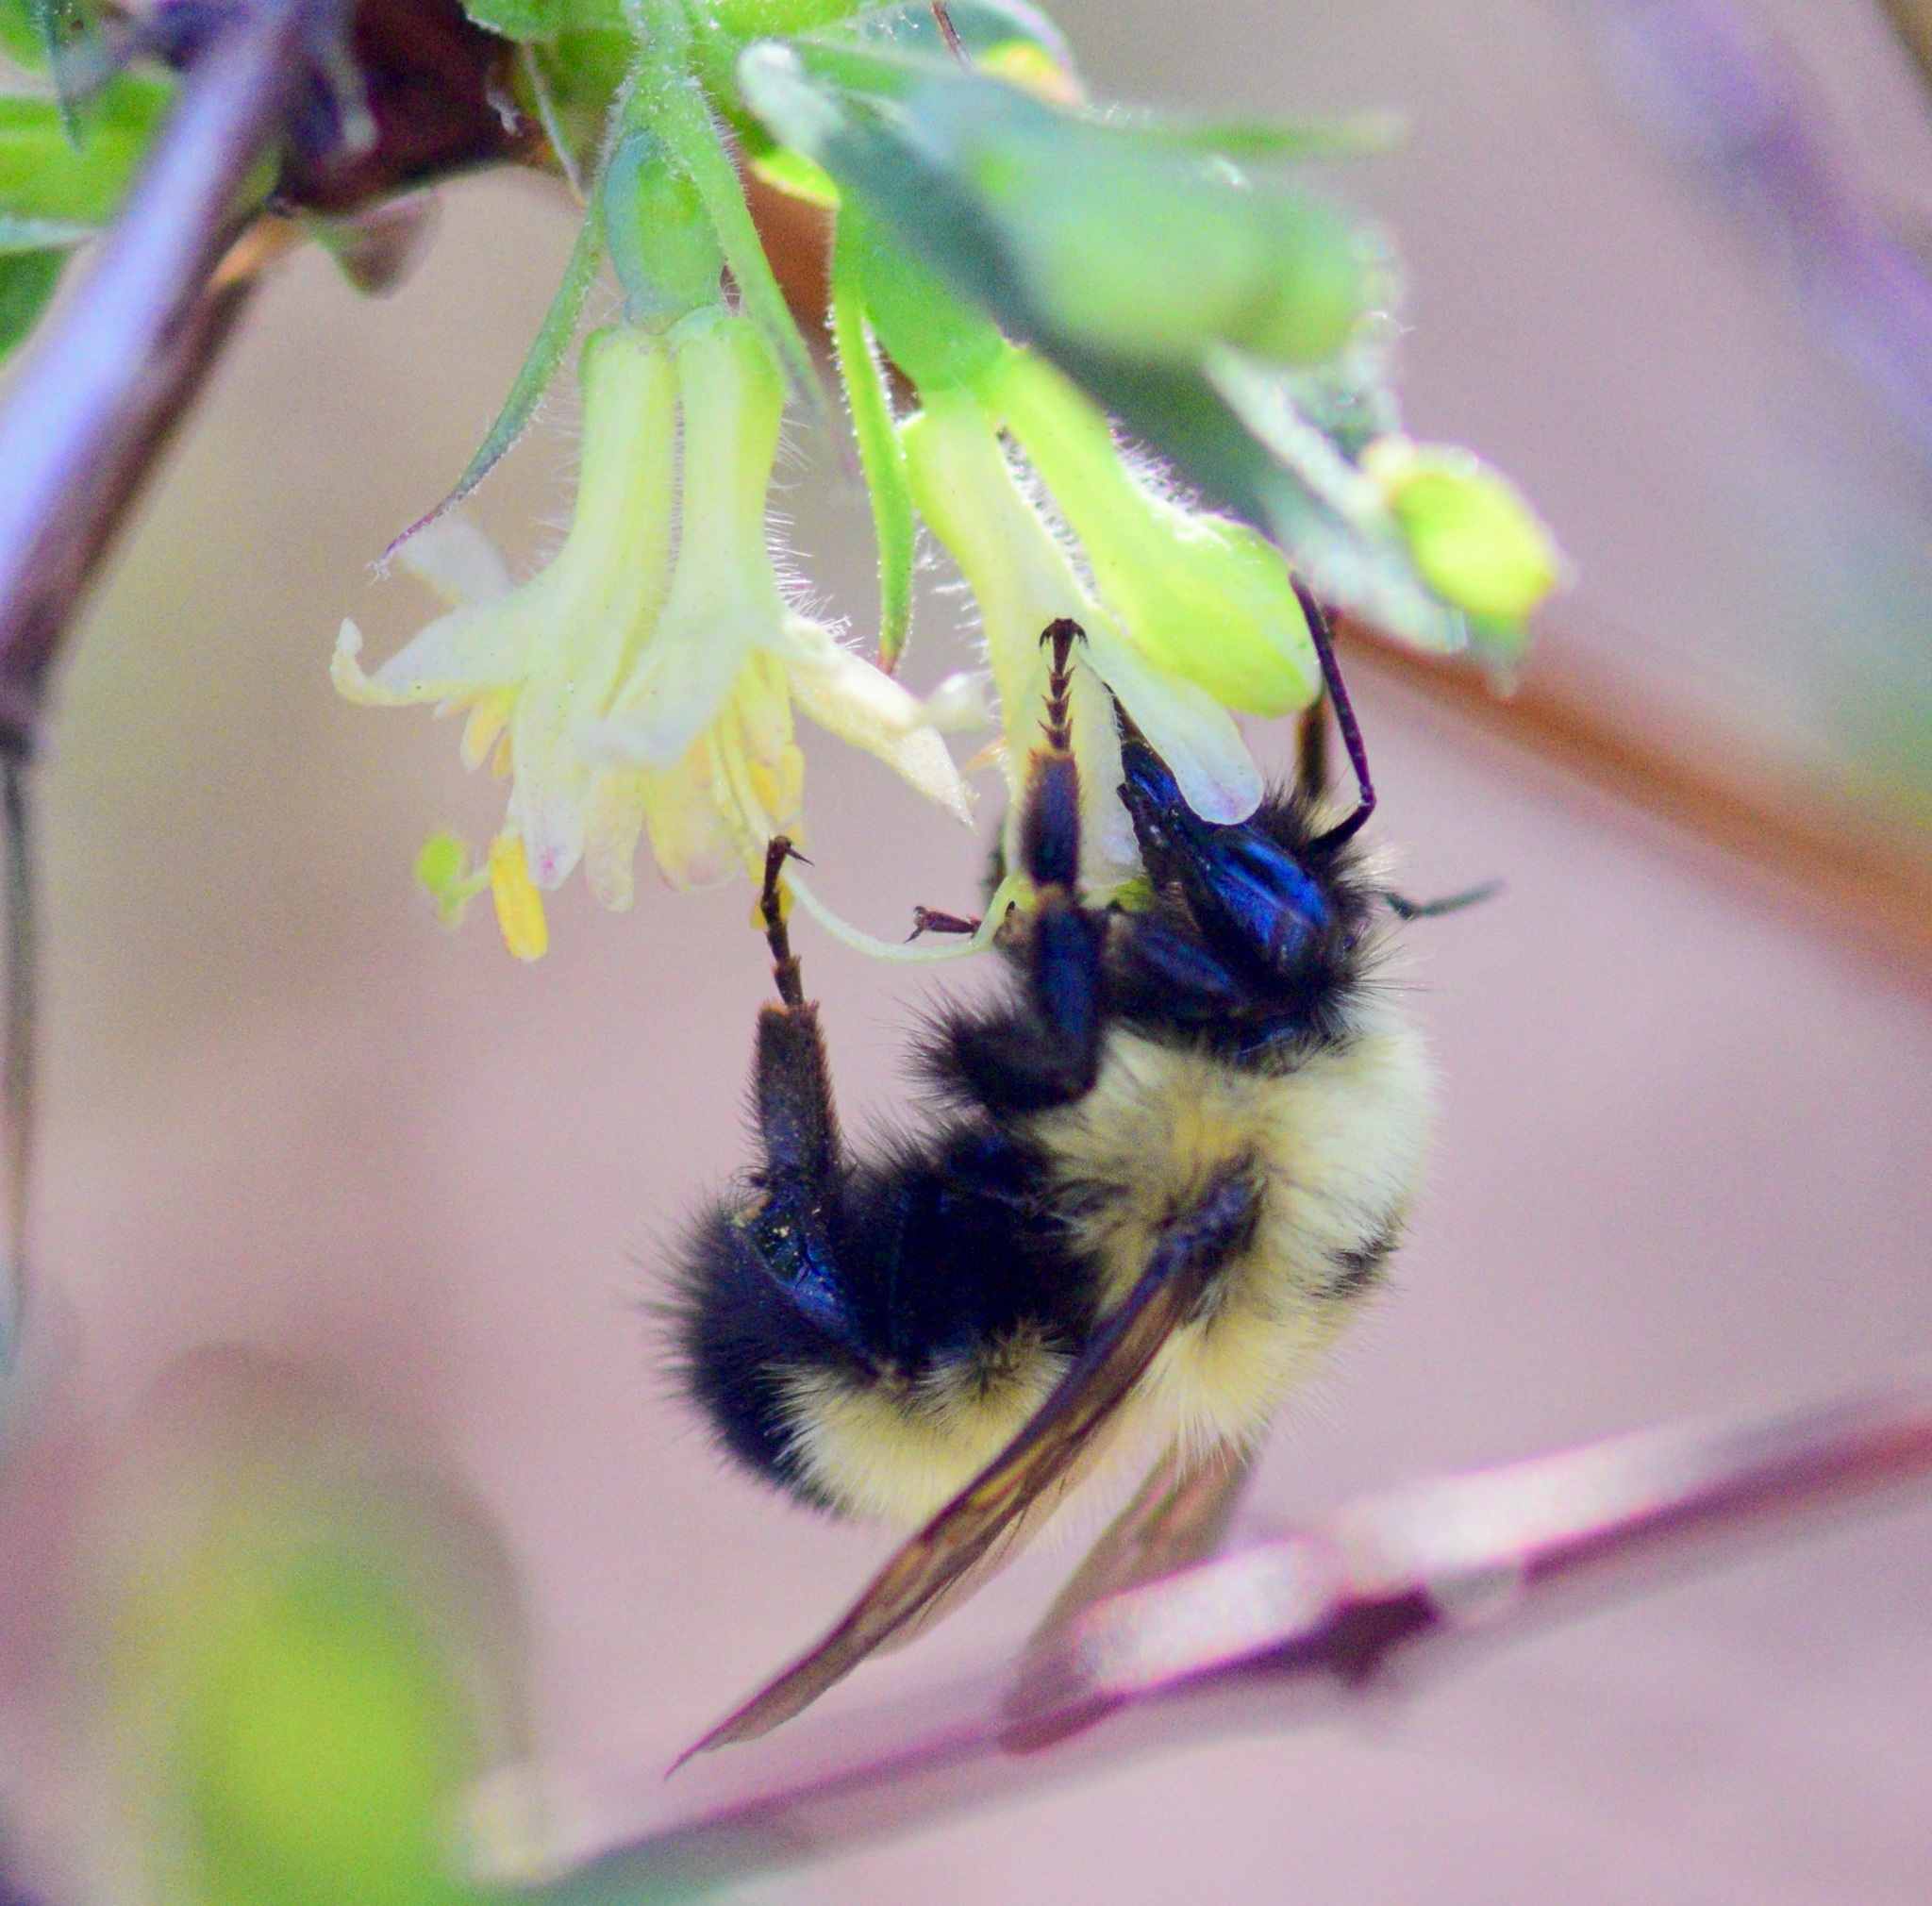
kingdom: Animalia
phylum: Arthropoda
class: Insecta
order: Hymenoptera
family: Apidae
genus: Bombus
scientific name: Bombus vagans
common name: Half-black bumble bee
